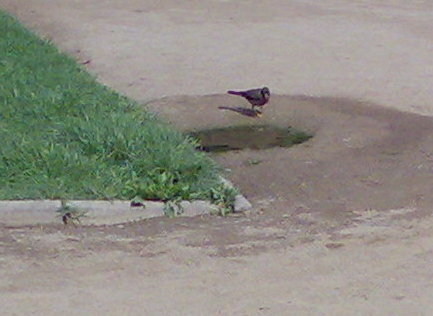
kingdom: Animalia
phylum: Chordata
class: Aves
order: Passeriformes
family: Turdidae
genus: Turdus
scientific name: Turdus falcklandii
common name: Austral thrush
